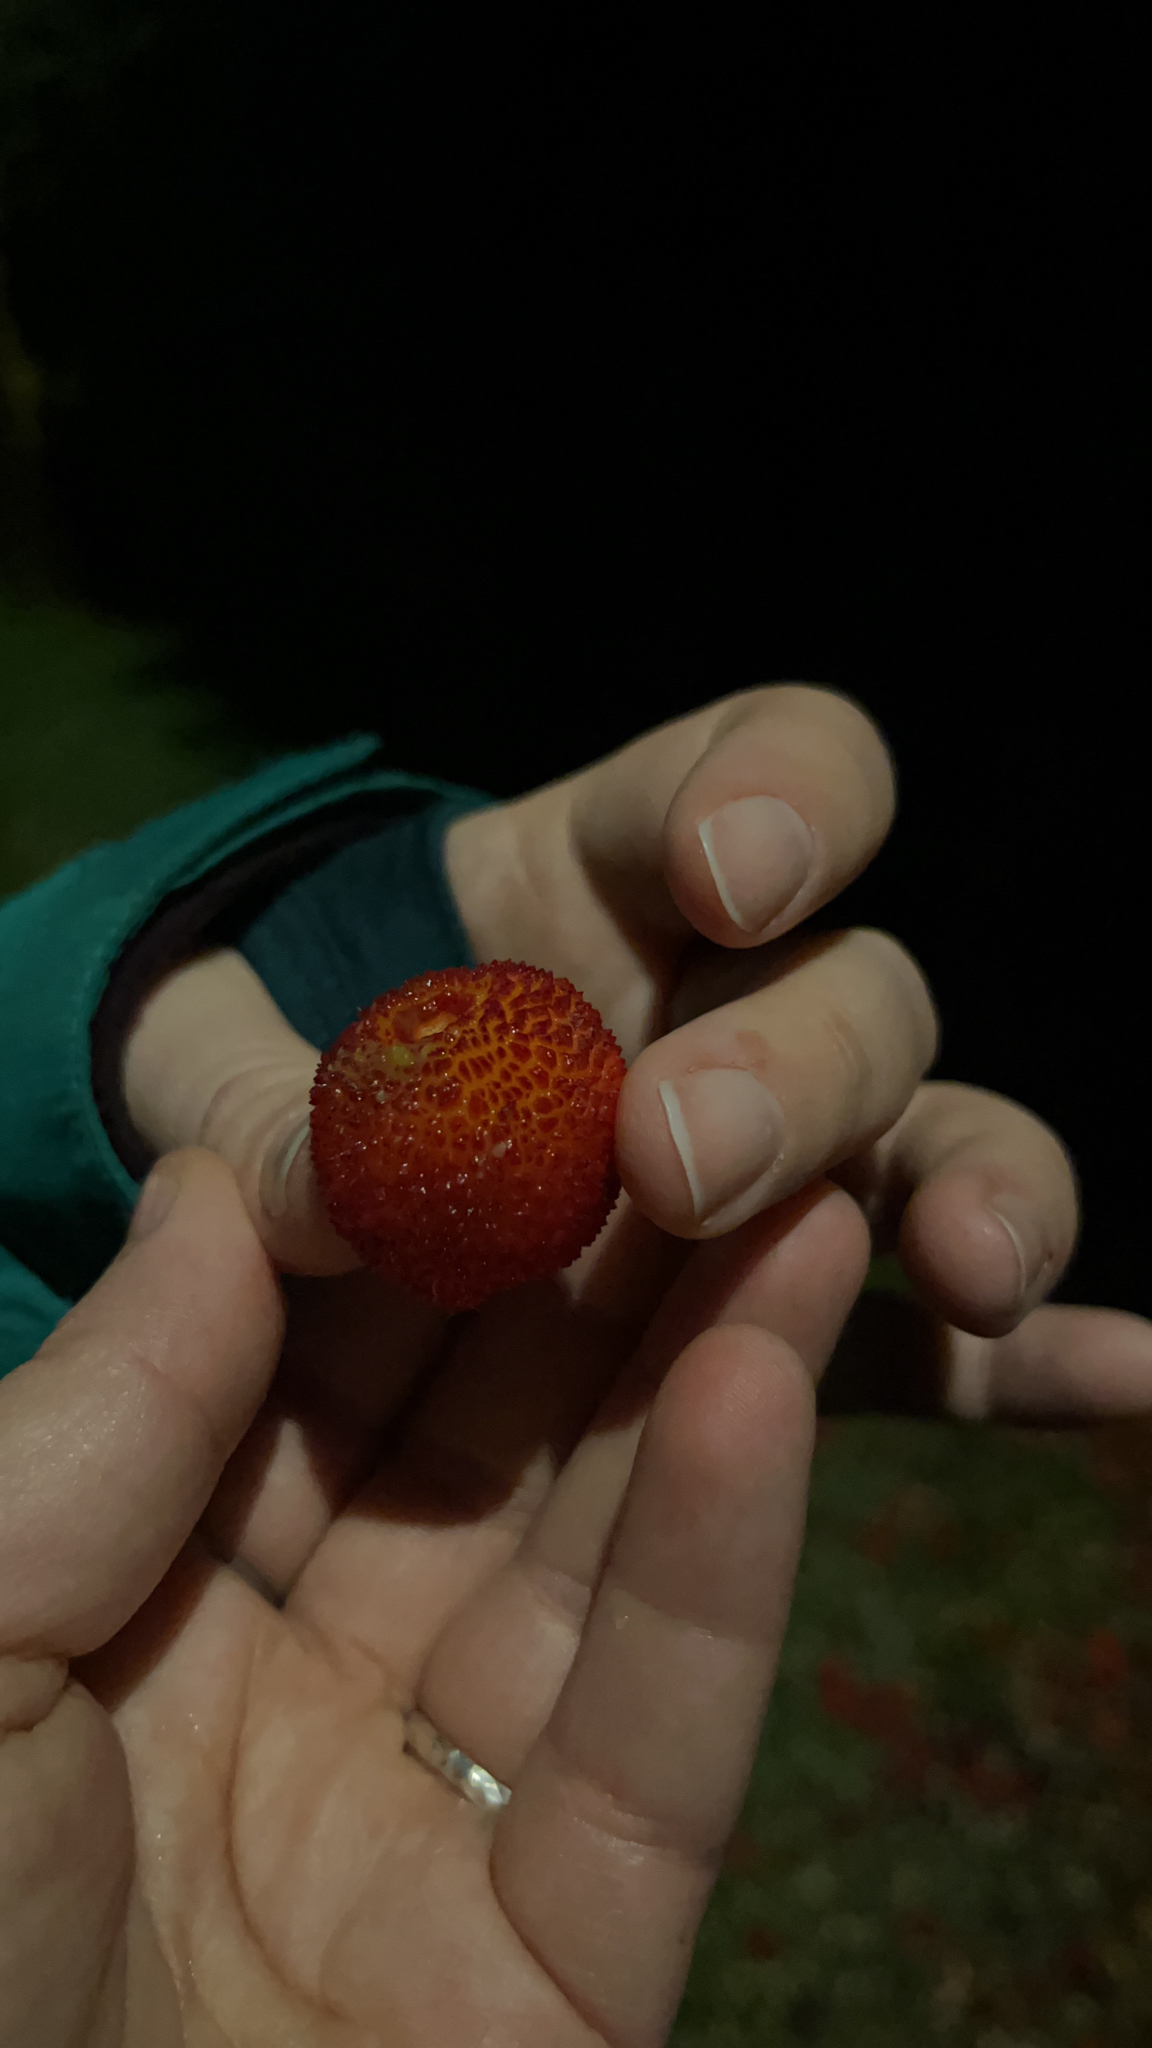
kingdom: Plantae
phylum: Tracheophyta
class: Magnoliopsida
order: Ericales
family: Ericaceae
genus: Arbutus
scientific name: Arbutus unedo
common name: Strawberry-tree
